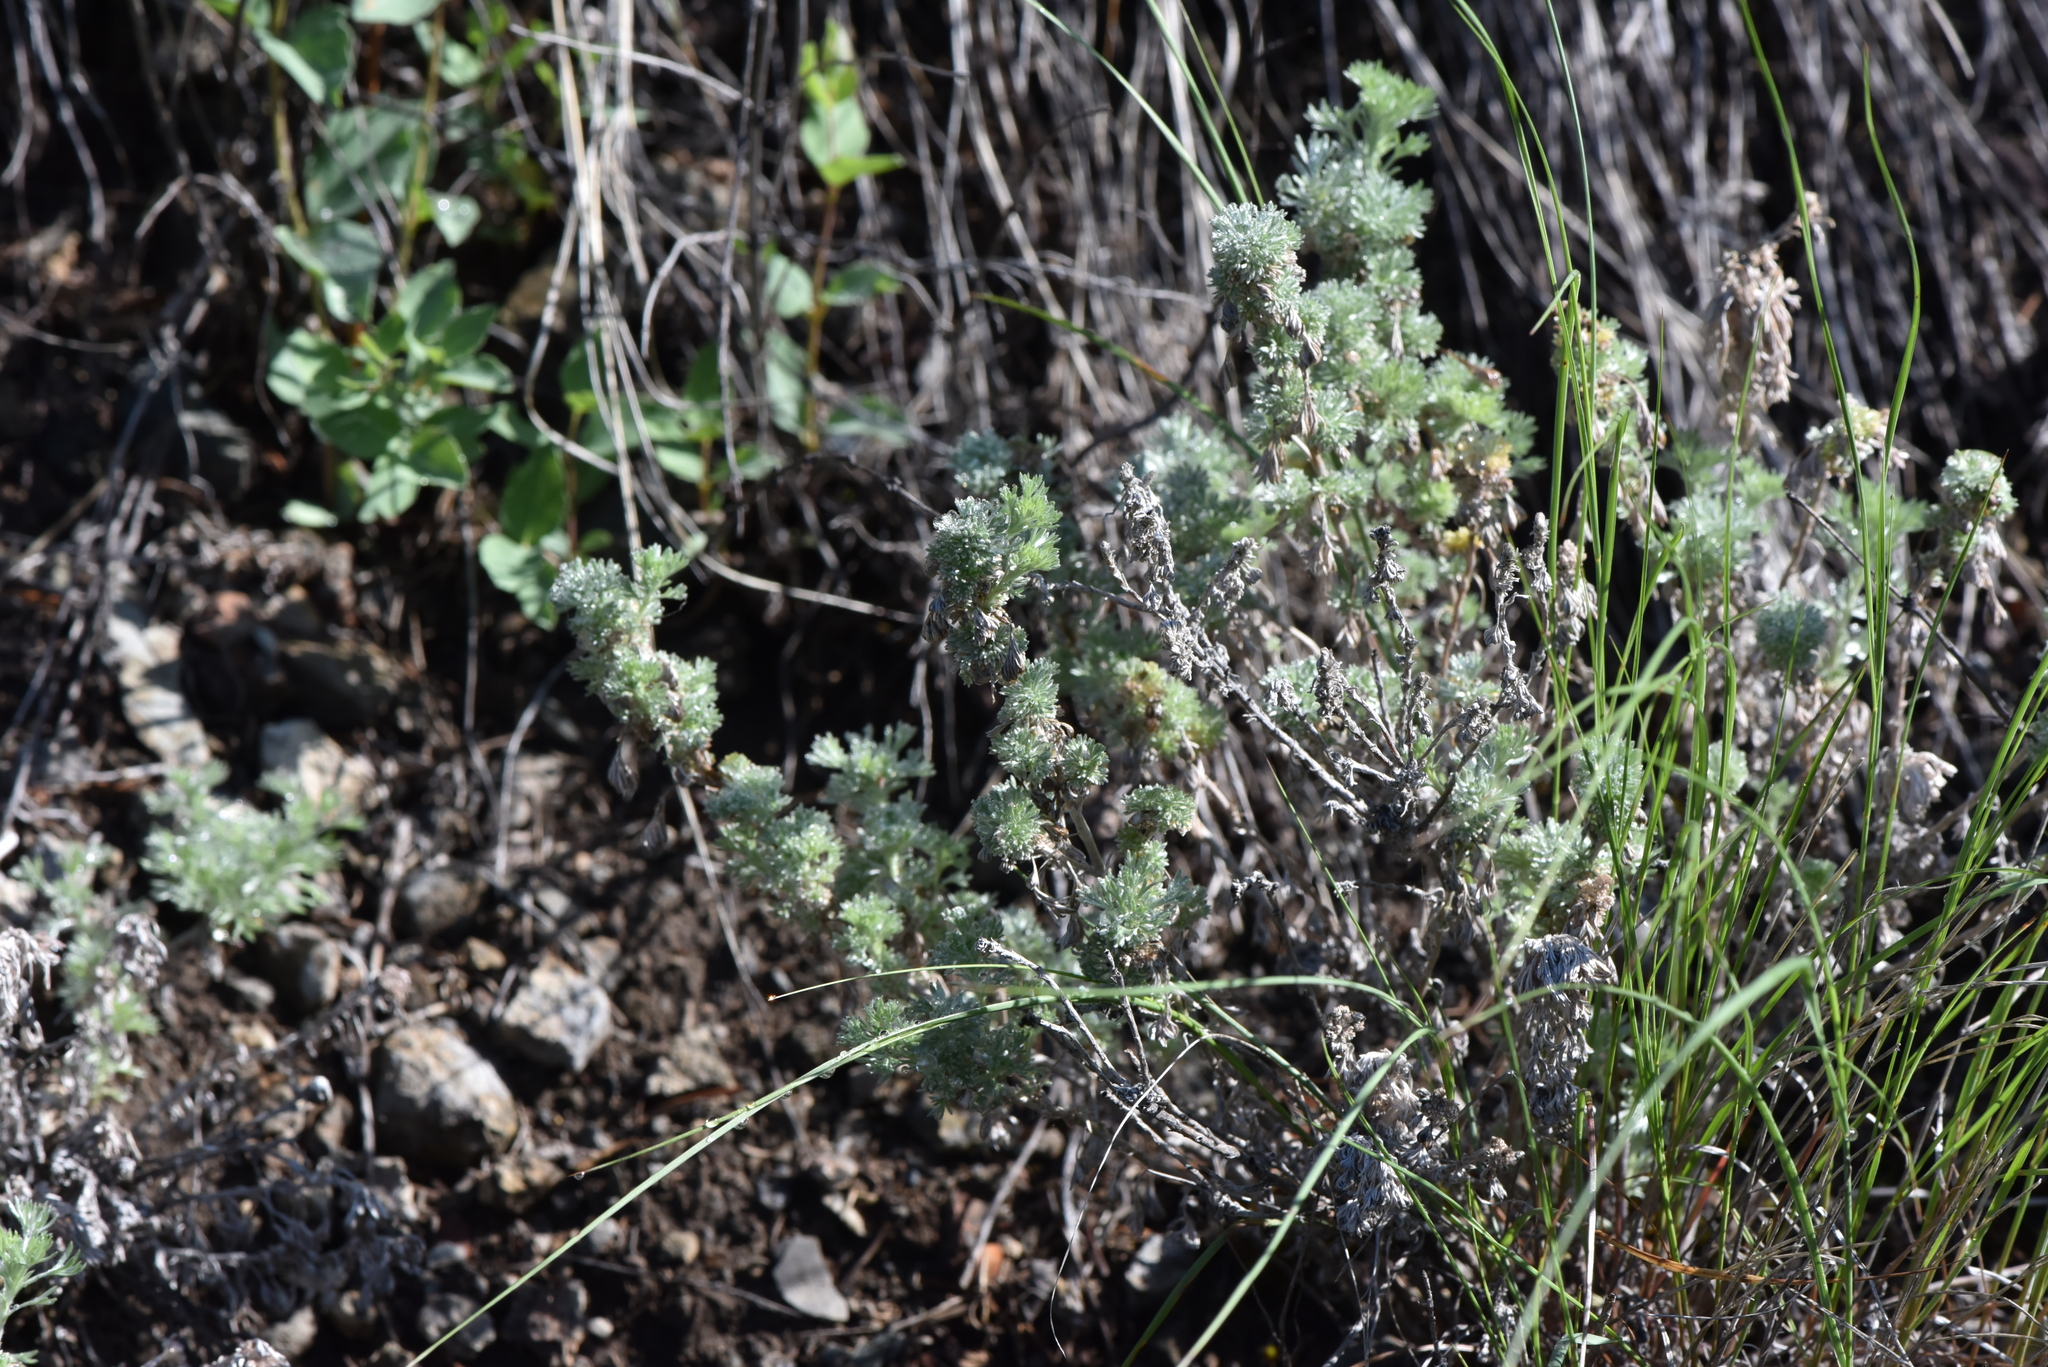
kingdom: Plantae
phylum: Tracheophyta
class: Magnoliopsida
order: Asterales
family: Asteraceae
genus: Artemisia
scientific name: Artemisia frigida
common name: Prairie sagewort
